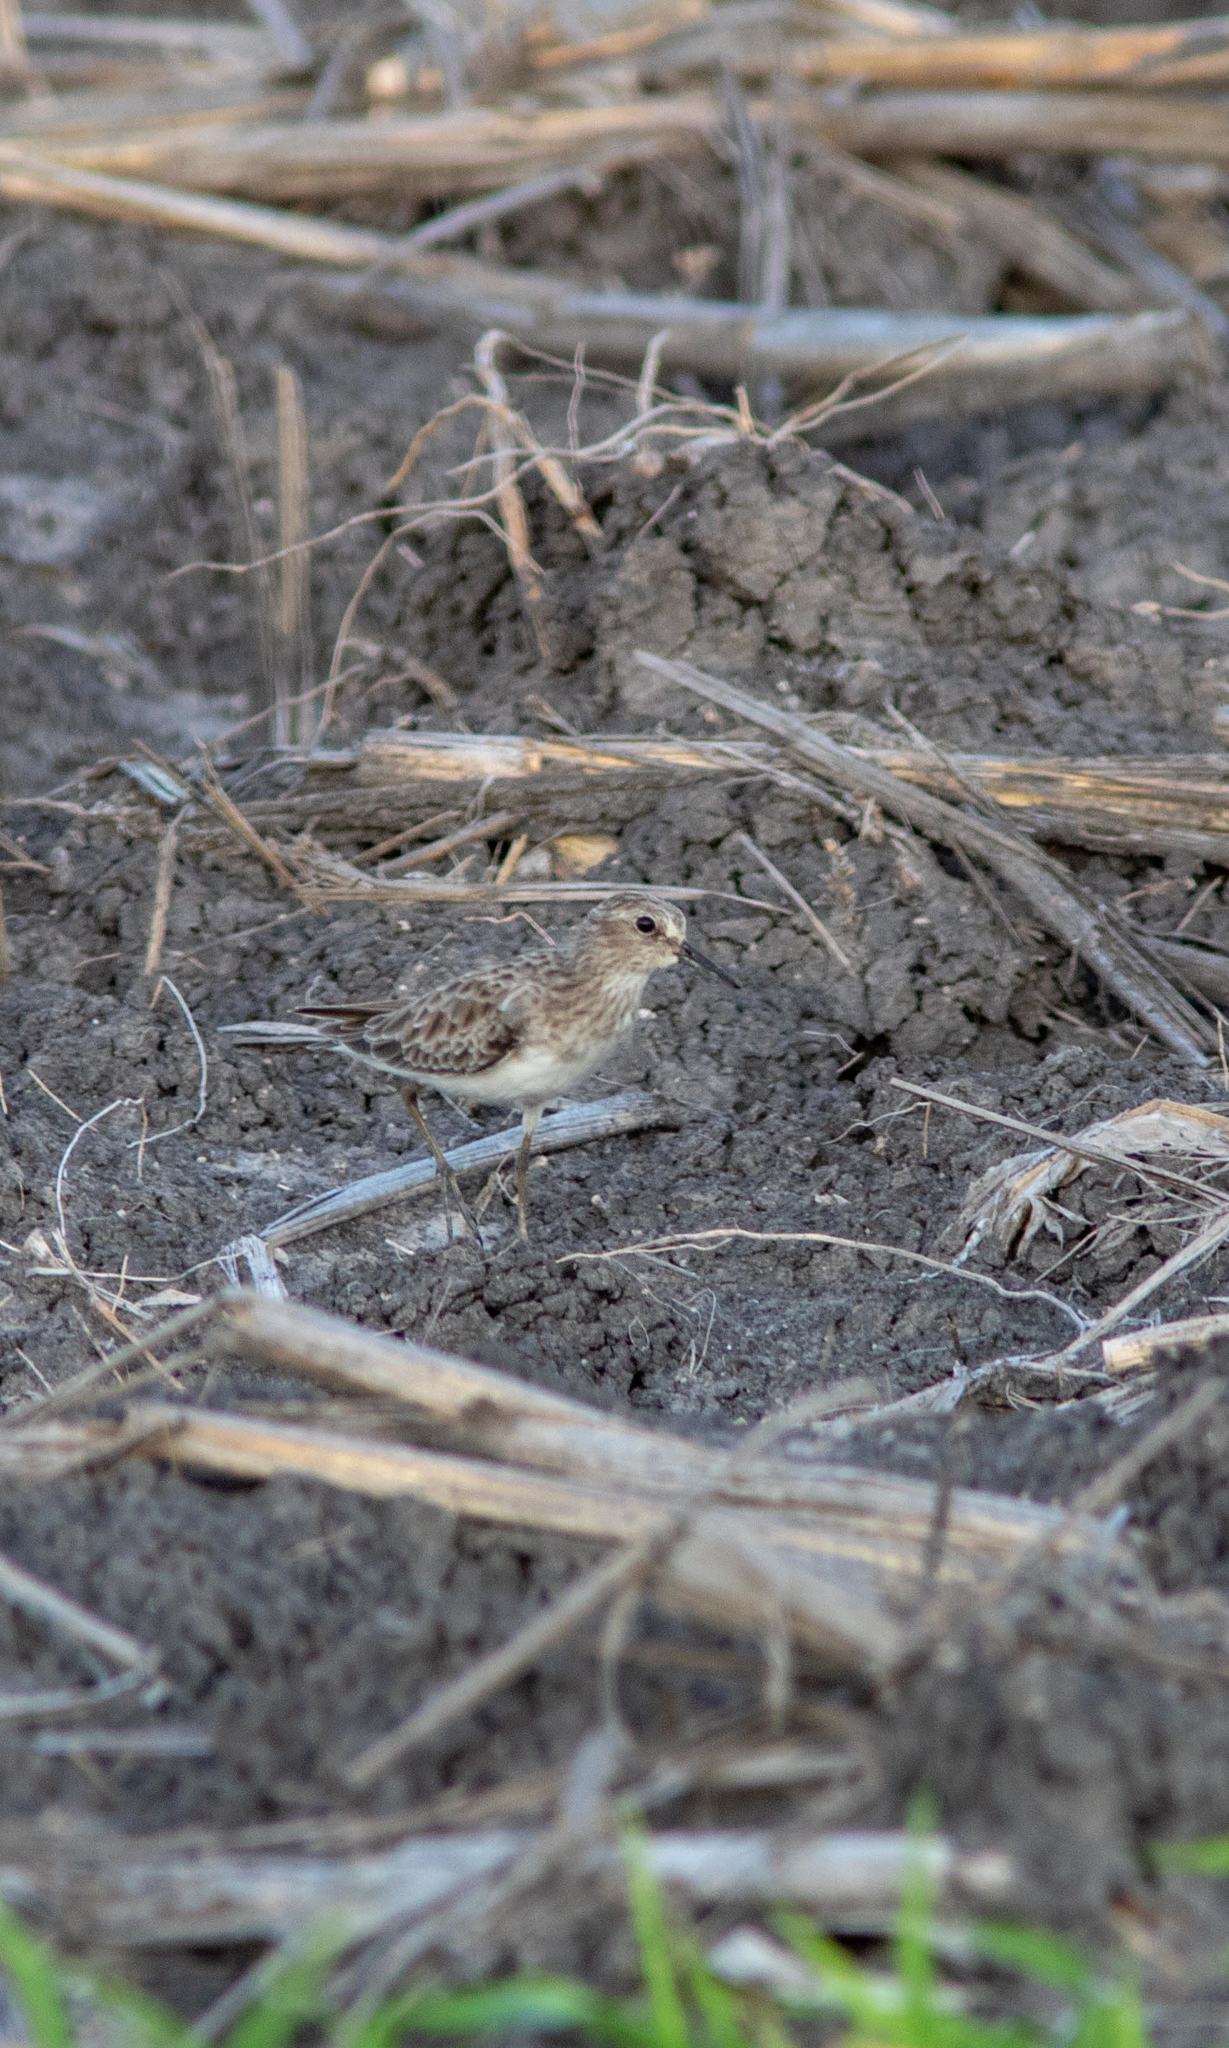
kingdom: Animalia
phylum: Chordata
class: Aves
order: Charadriiformes
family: Scolopacidae
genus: Calidris
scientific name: Calidris minutilla
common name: Least sandpiper
